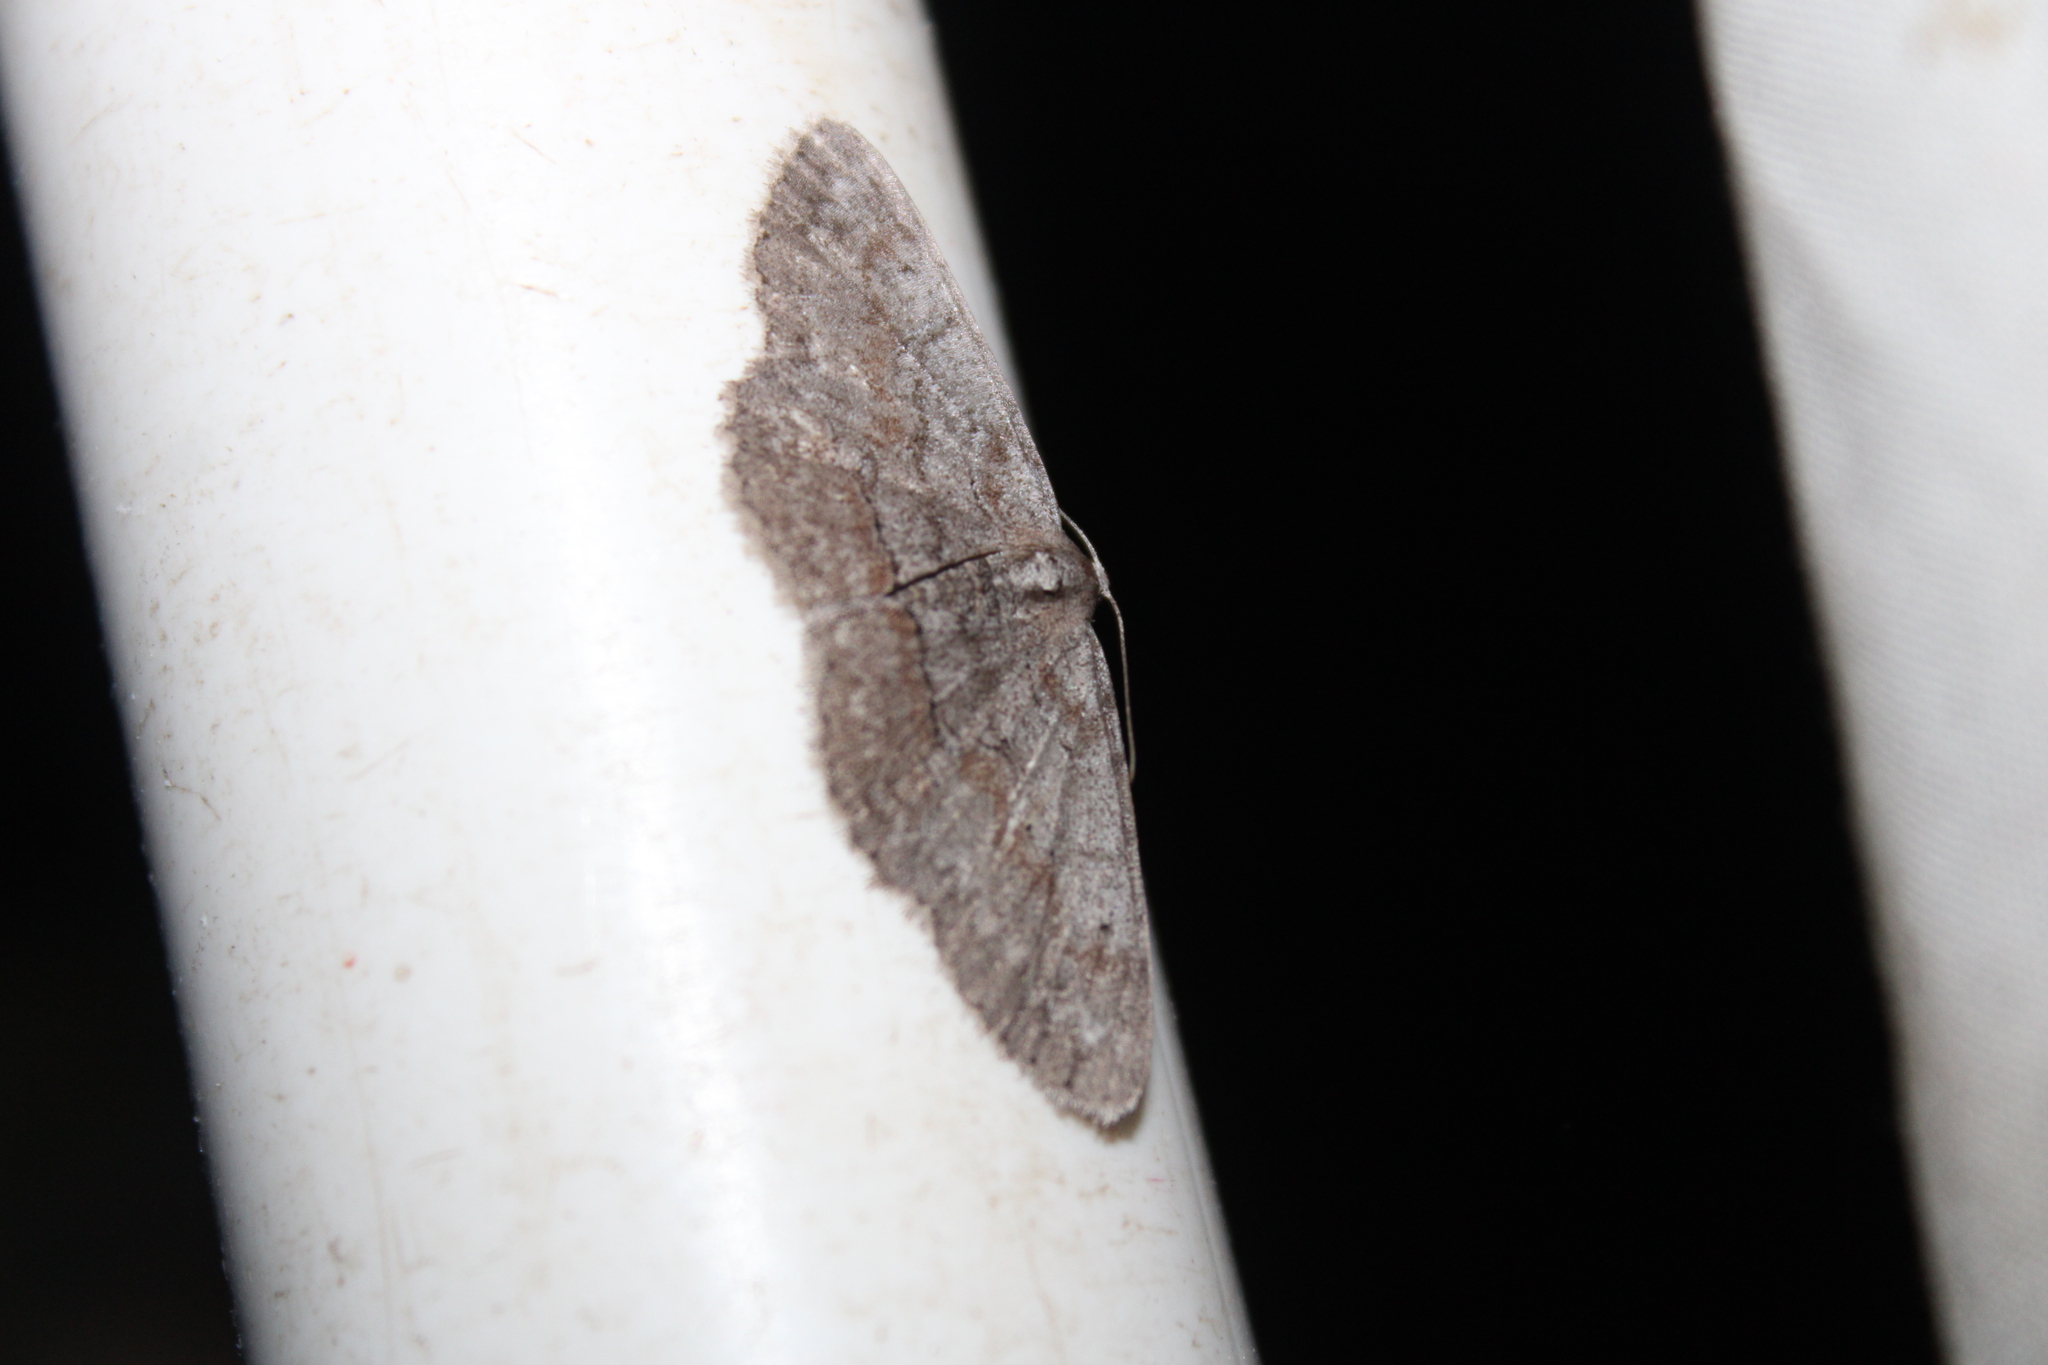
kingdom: Animalia
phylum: Arthropoda
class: Insecta
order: Lepidoptera
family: Geometridae
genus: Iridopsis
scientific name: Iridopsis vellivolata
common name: Large purplish gray
